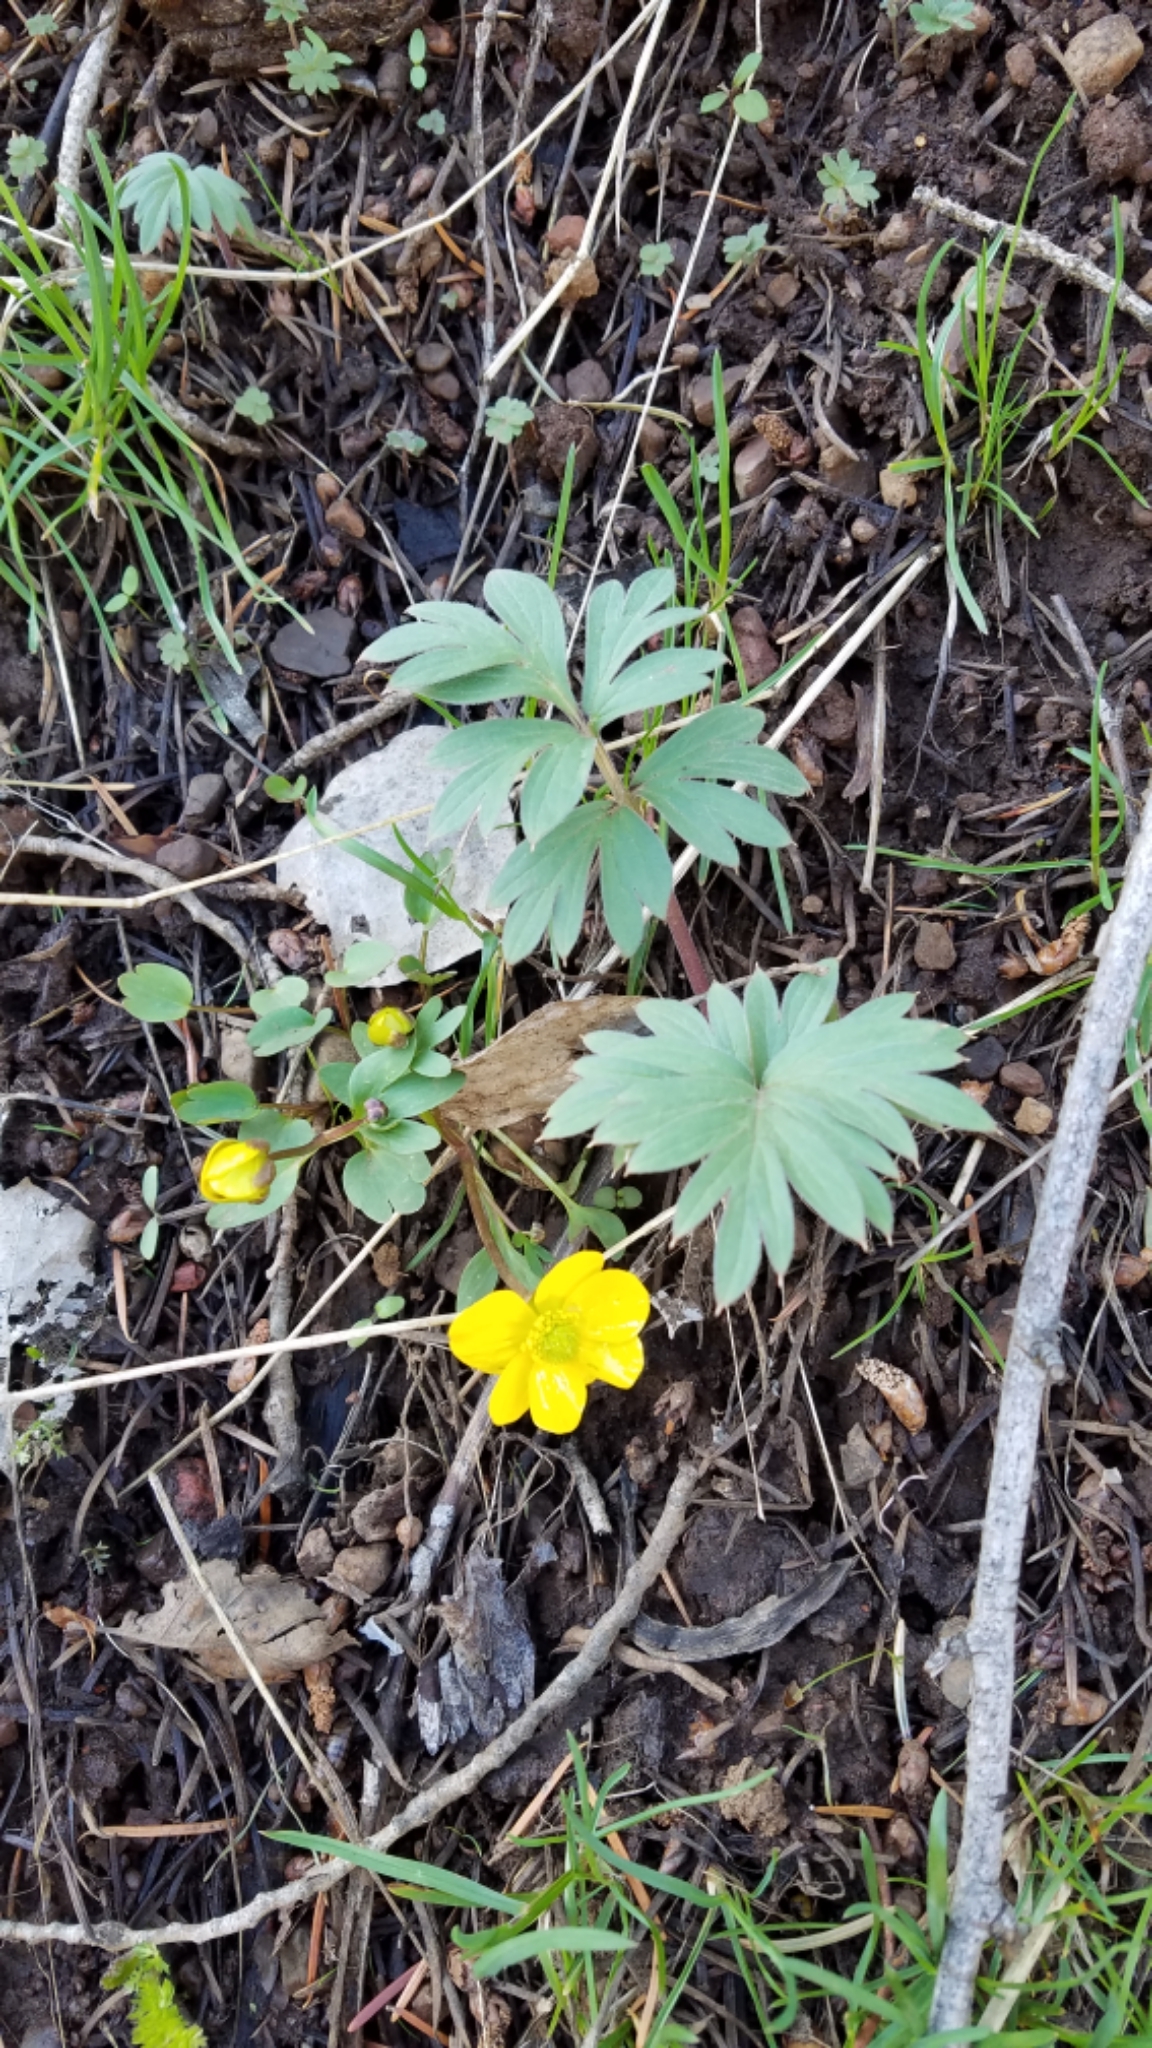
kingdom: Plantae
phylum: Tracheophyta
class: Magnoliopsida
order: Ranunculales
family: Ranunculaceae
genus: Ranunculus
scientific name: Ranunculus glaberrimus
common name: Sagebrush buttercup
